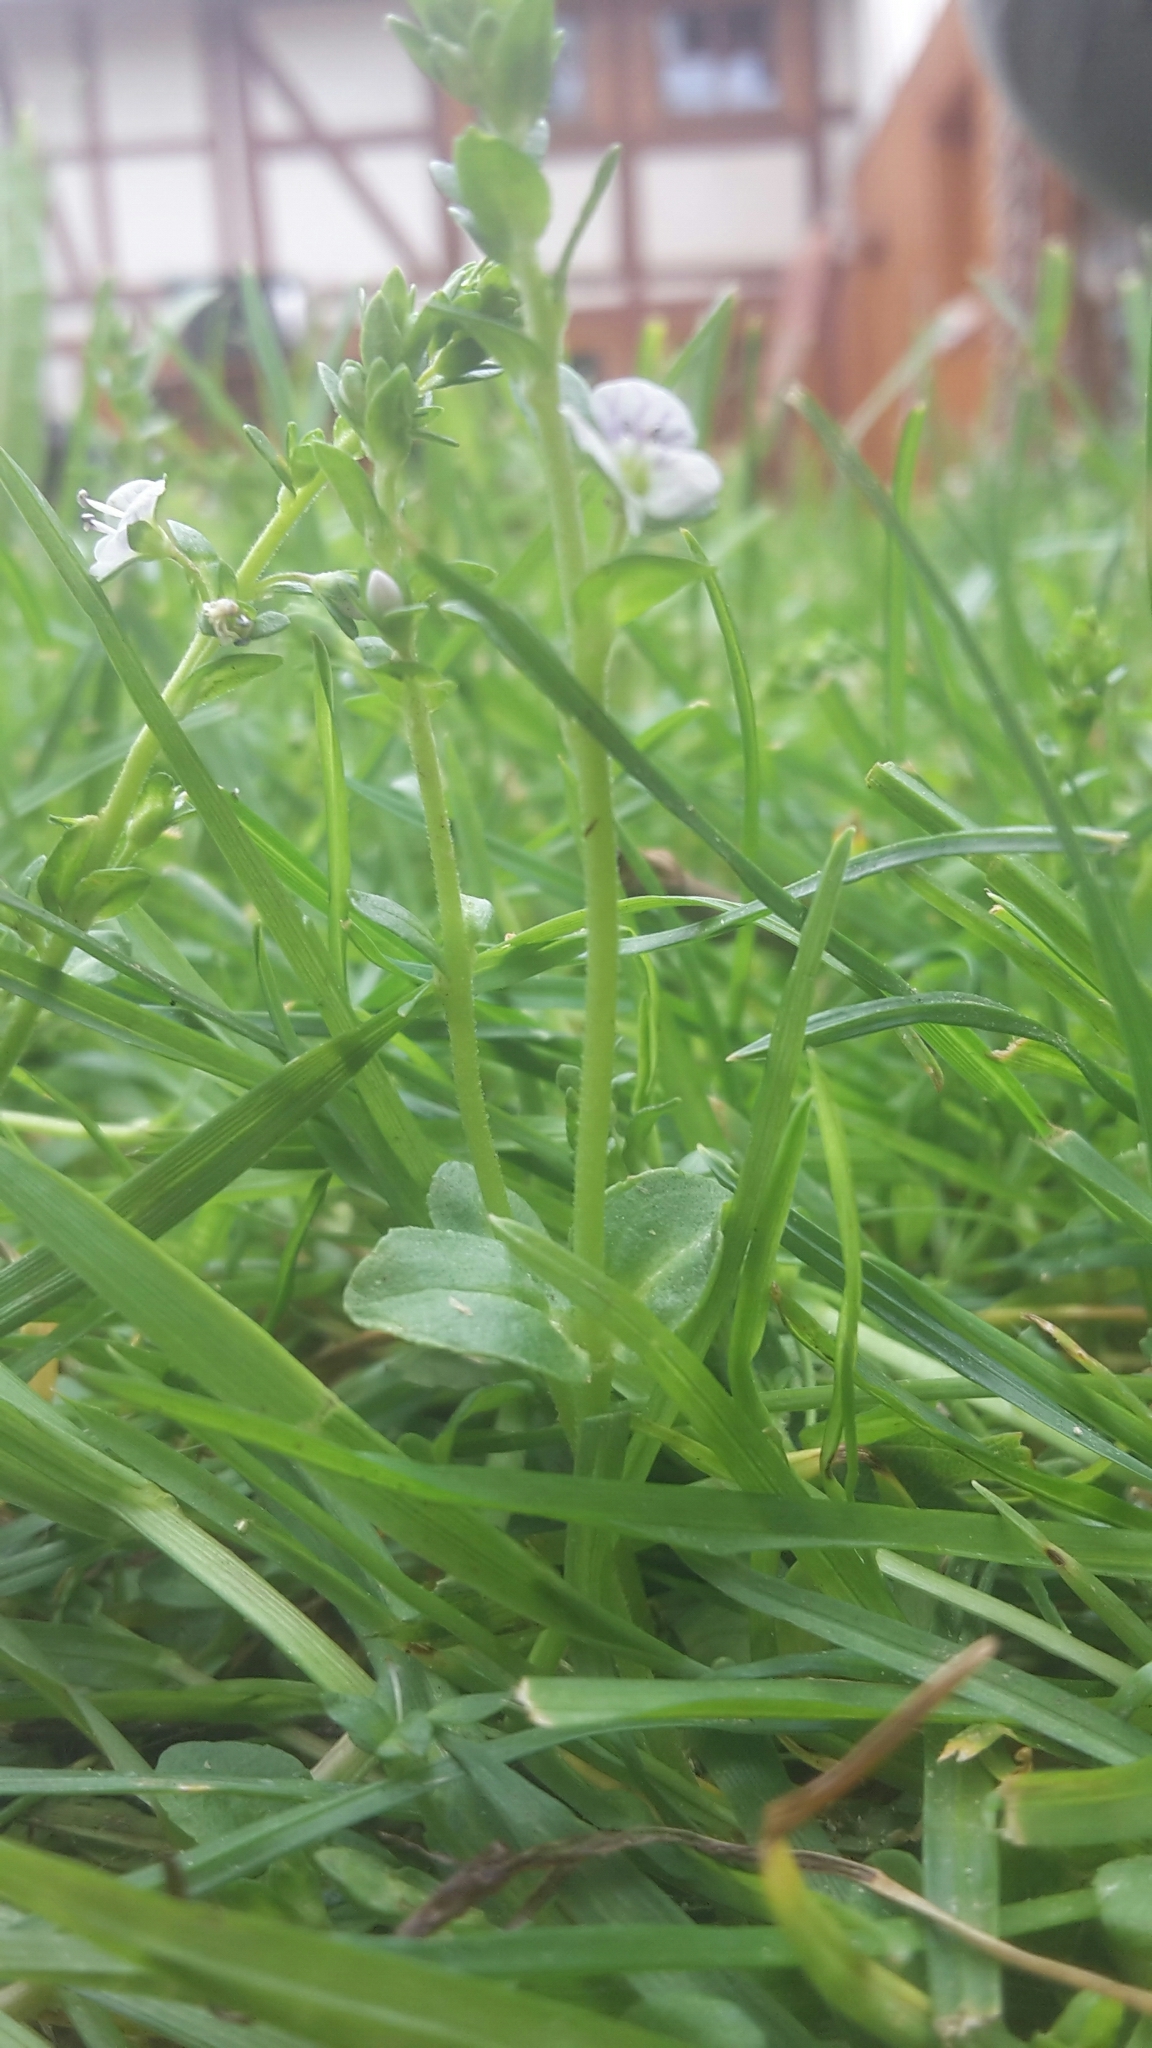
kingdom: Plantae
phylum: Tracheophyta
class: Magnoliopsida
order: Lamiales
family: Plantaginaceae
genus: Veronica
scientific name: Veronica serpyllifolia
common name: Thyme-leaved speedwell
